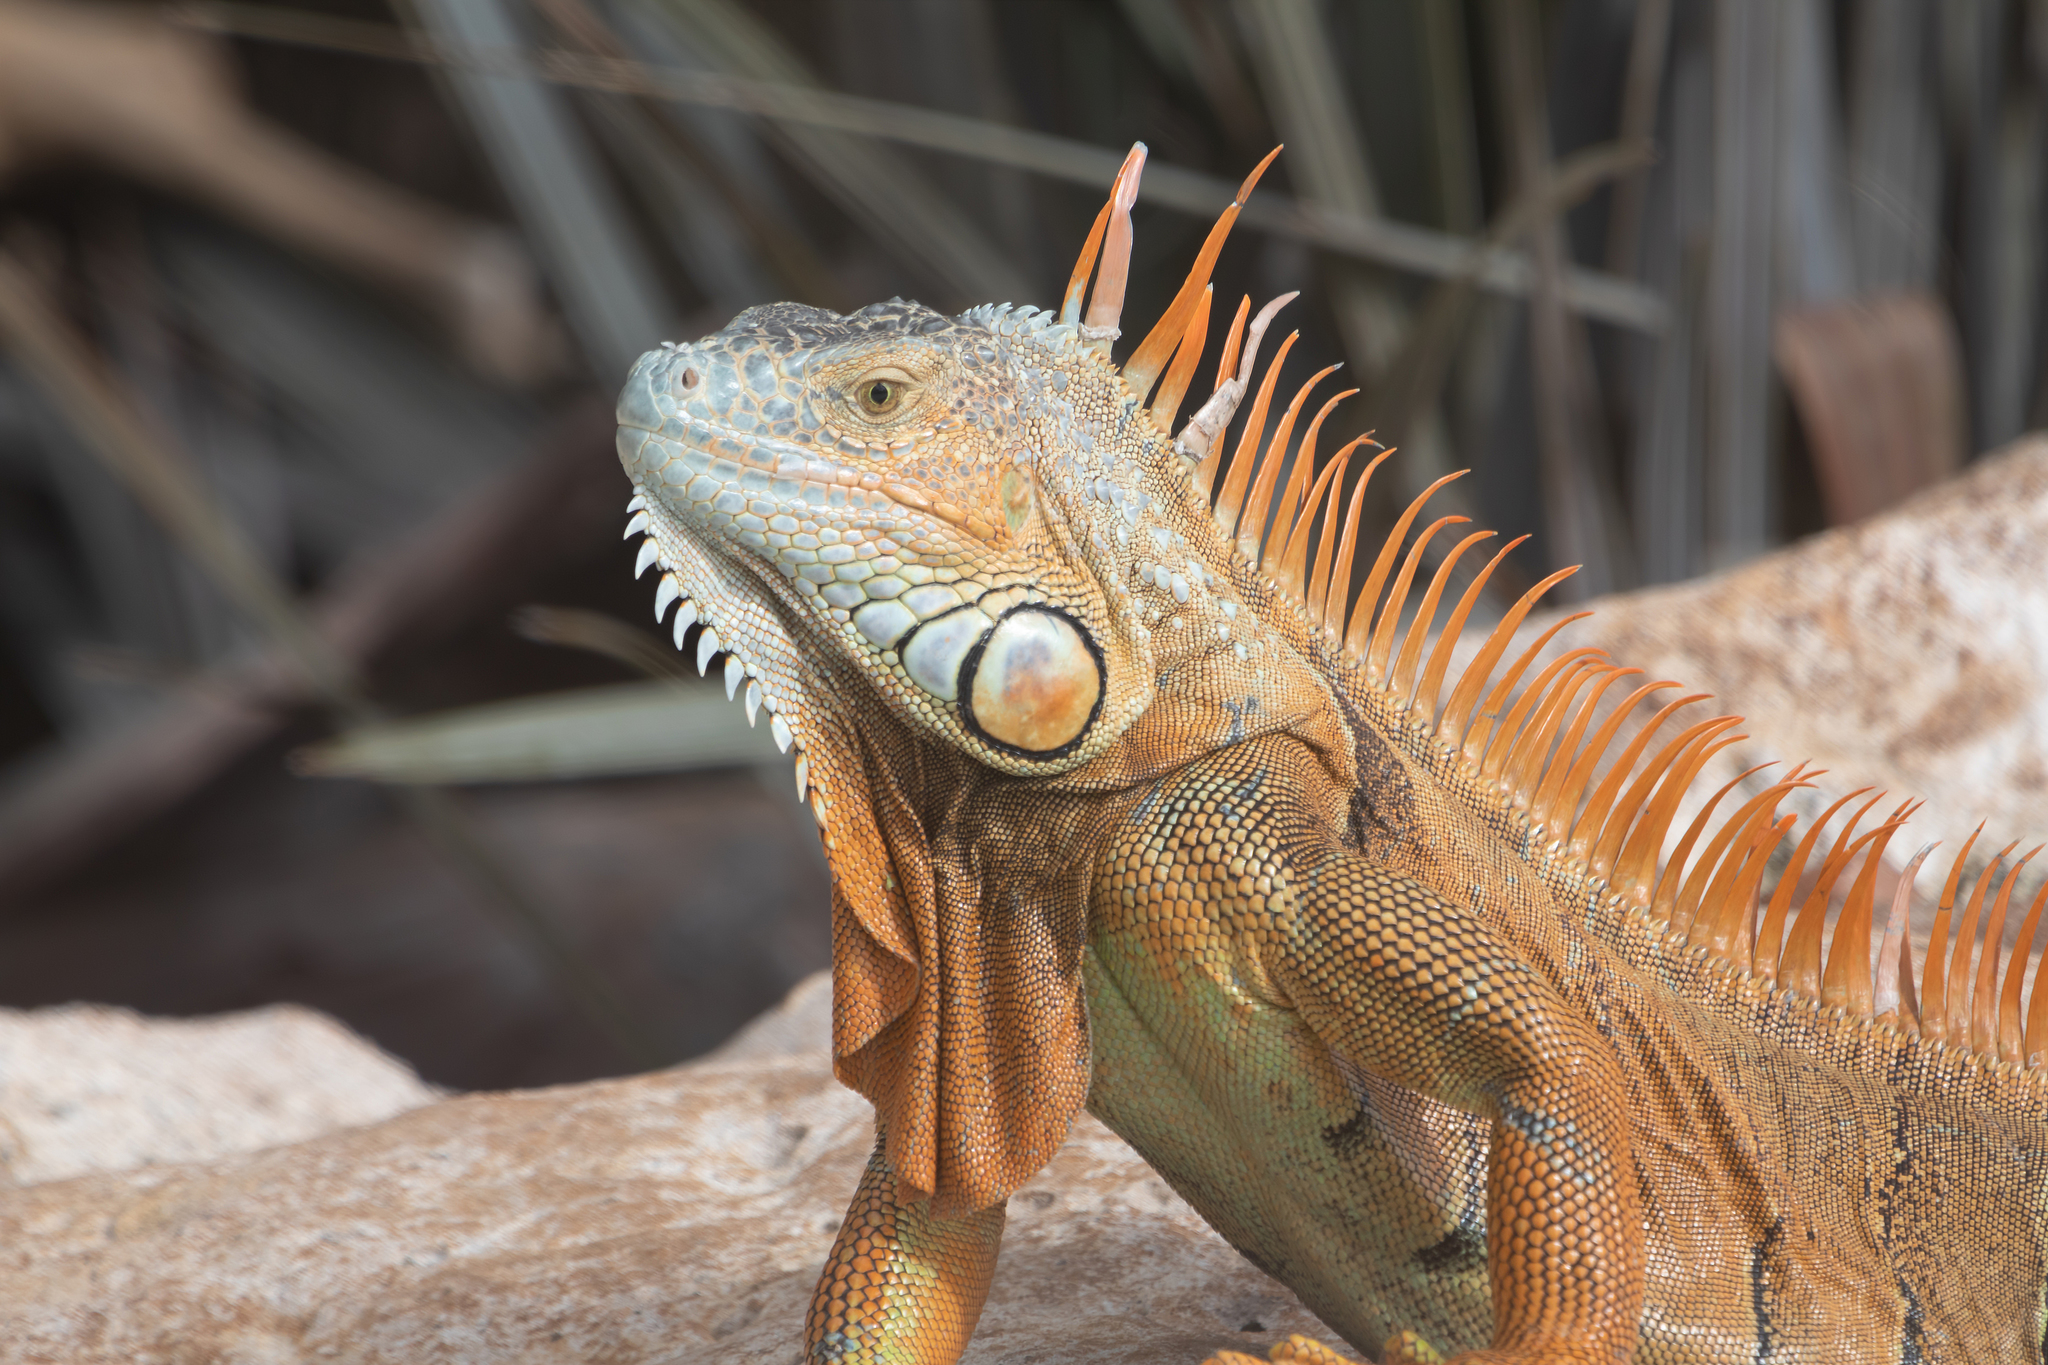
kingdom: Animalia
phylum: Chordata
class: Squamata
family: Iguanidae
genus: Iguana
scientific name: Iguana iguana
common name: Green iguana
